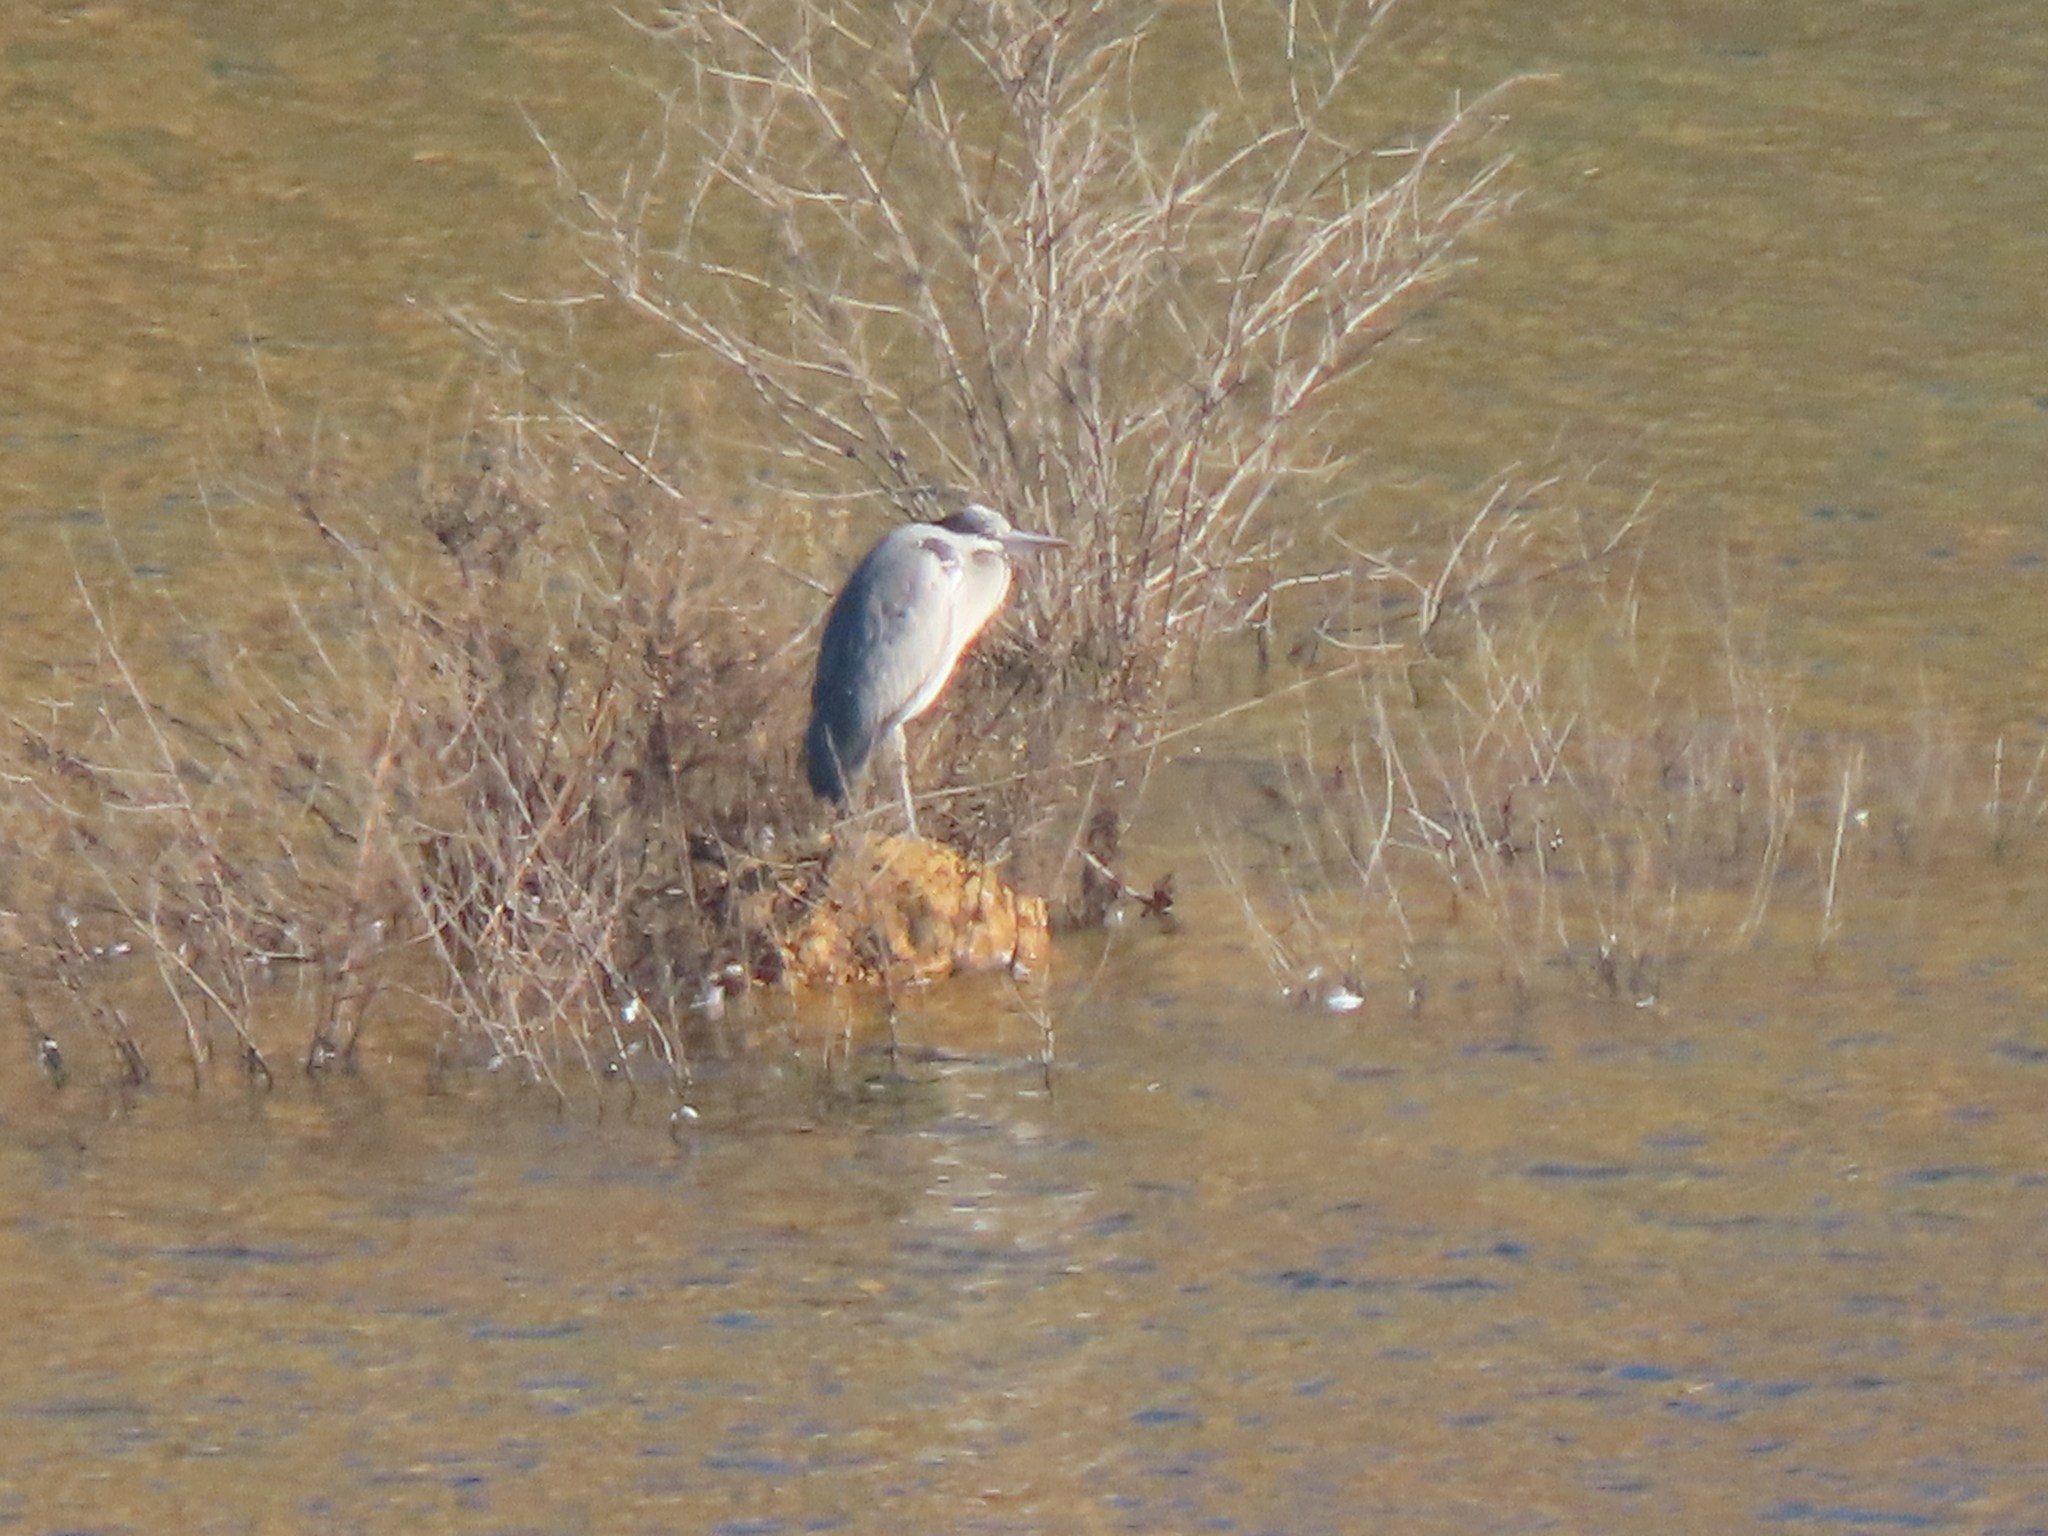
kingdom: Animalia
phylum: Chordata
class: Aves
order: Pelecaniformes
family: Ardeidae
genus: Ardea
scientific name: Ardea cinerea
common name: Grey heron
